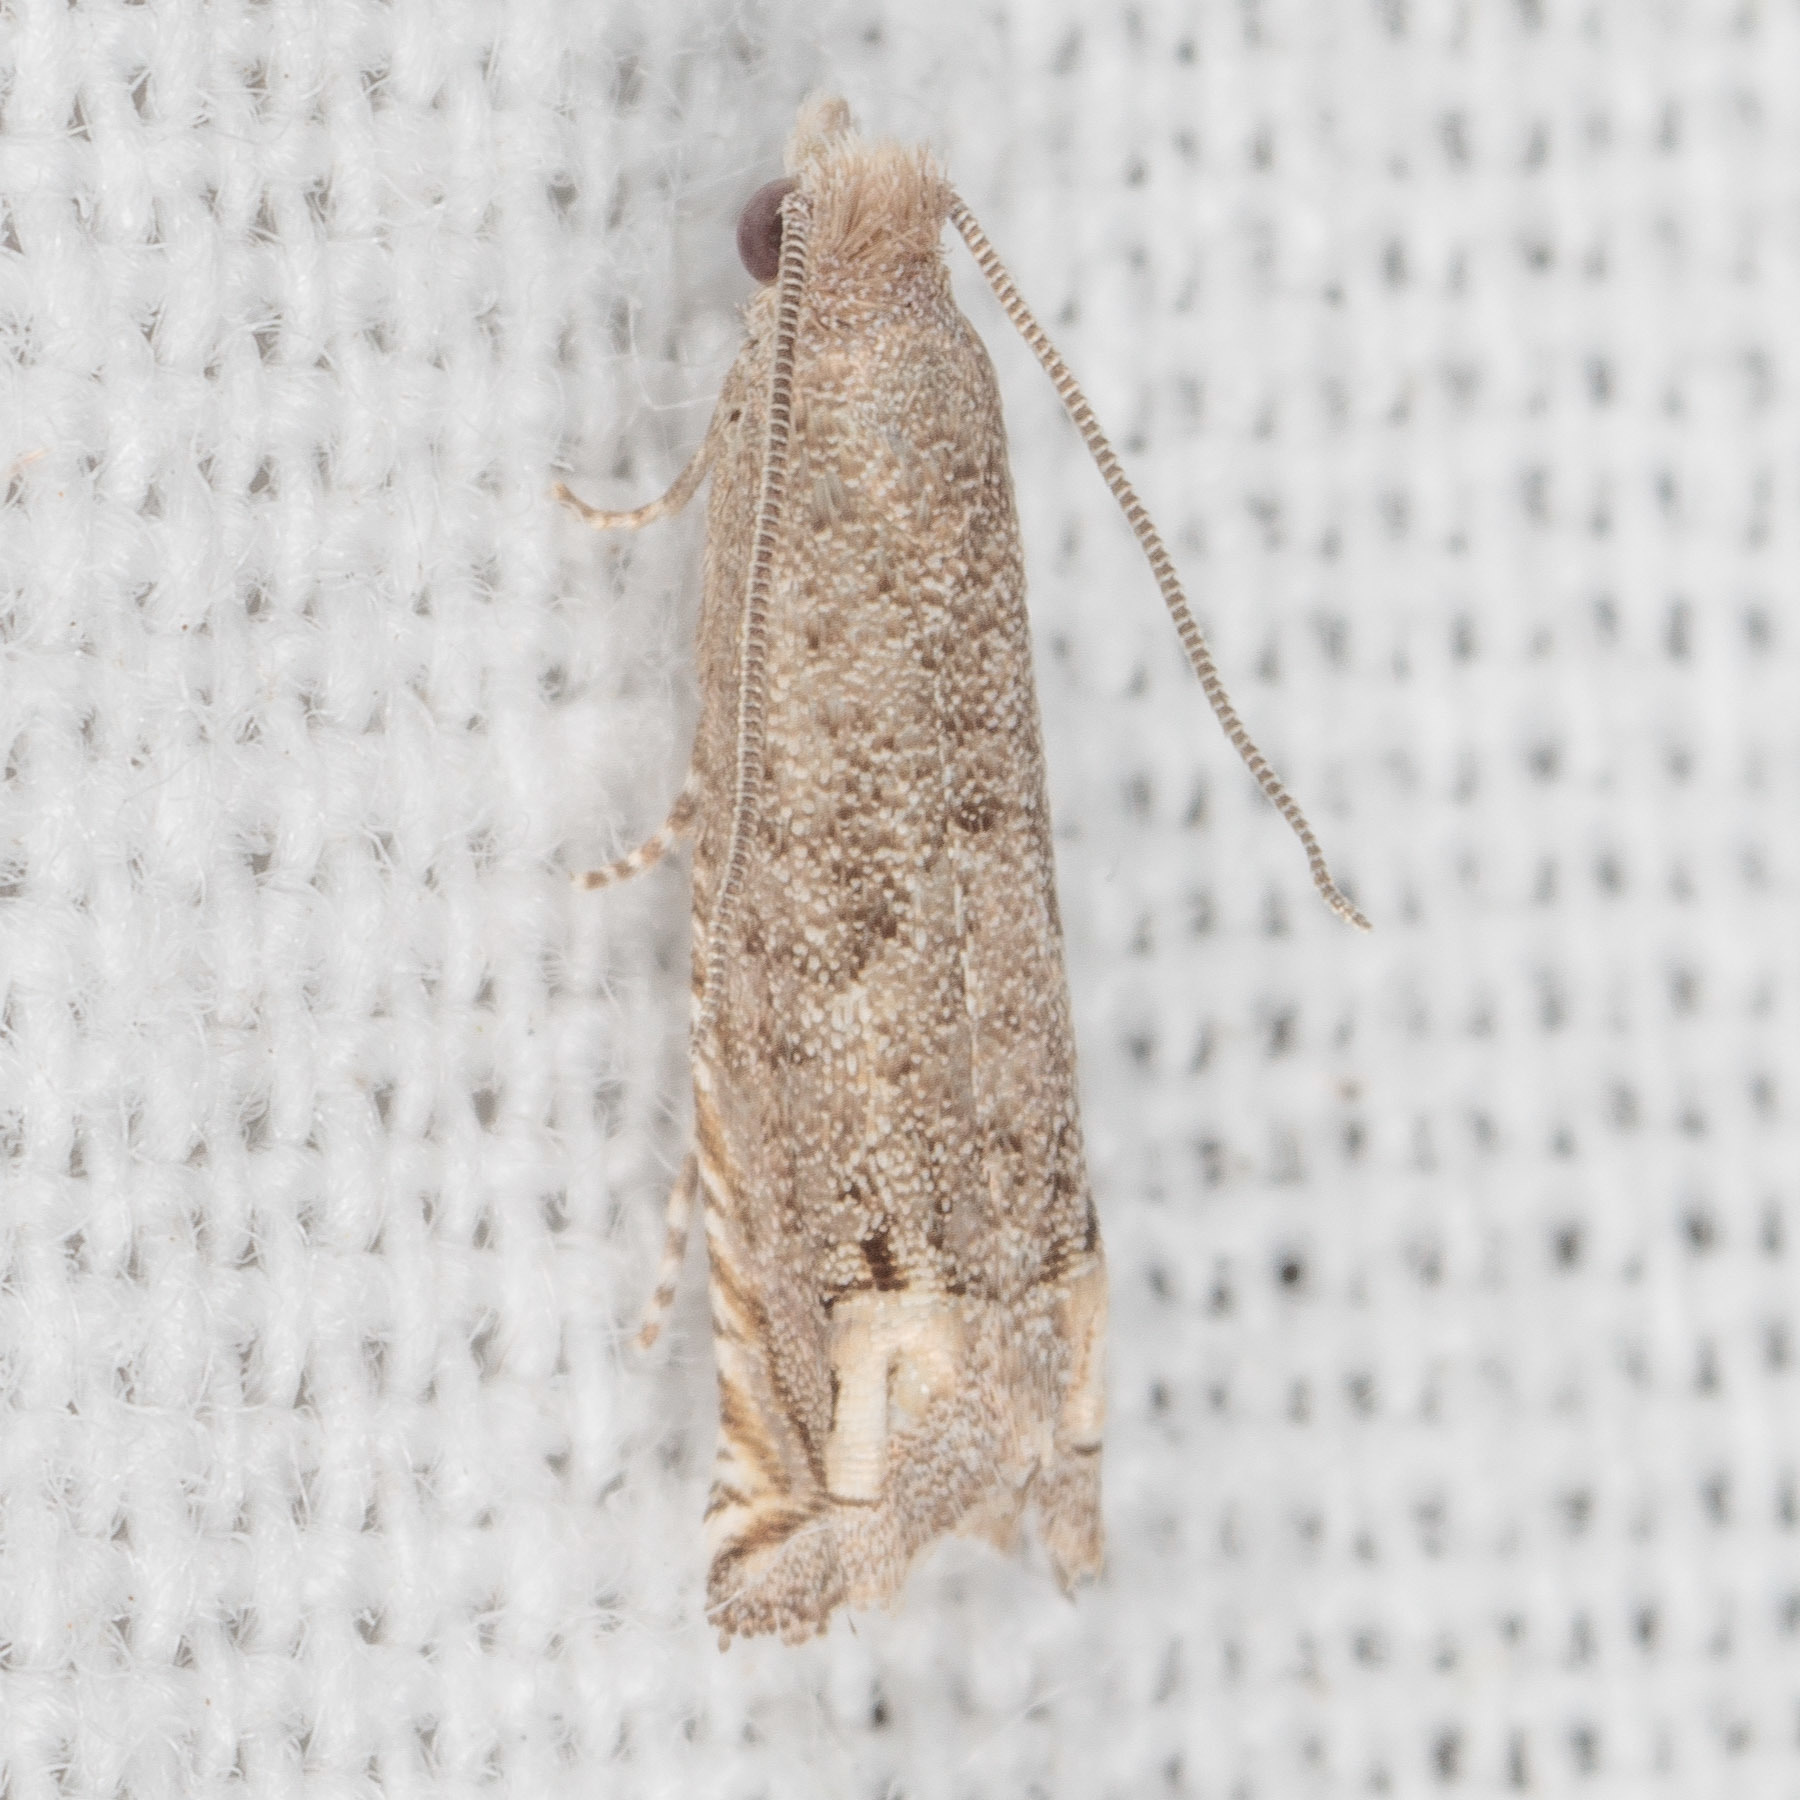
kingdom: Animalia
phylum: Arthropoda
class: Insecta
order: Lepidoptera
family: Tortricidae
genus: Epiblema
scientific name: Epiblema strenuana
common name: Ragweed borer moth
